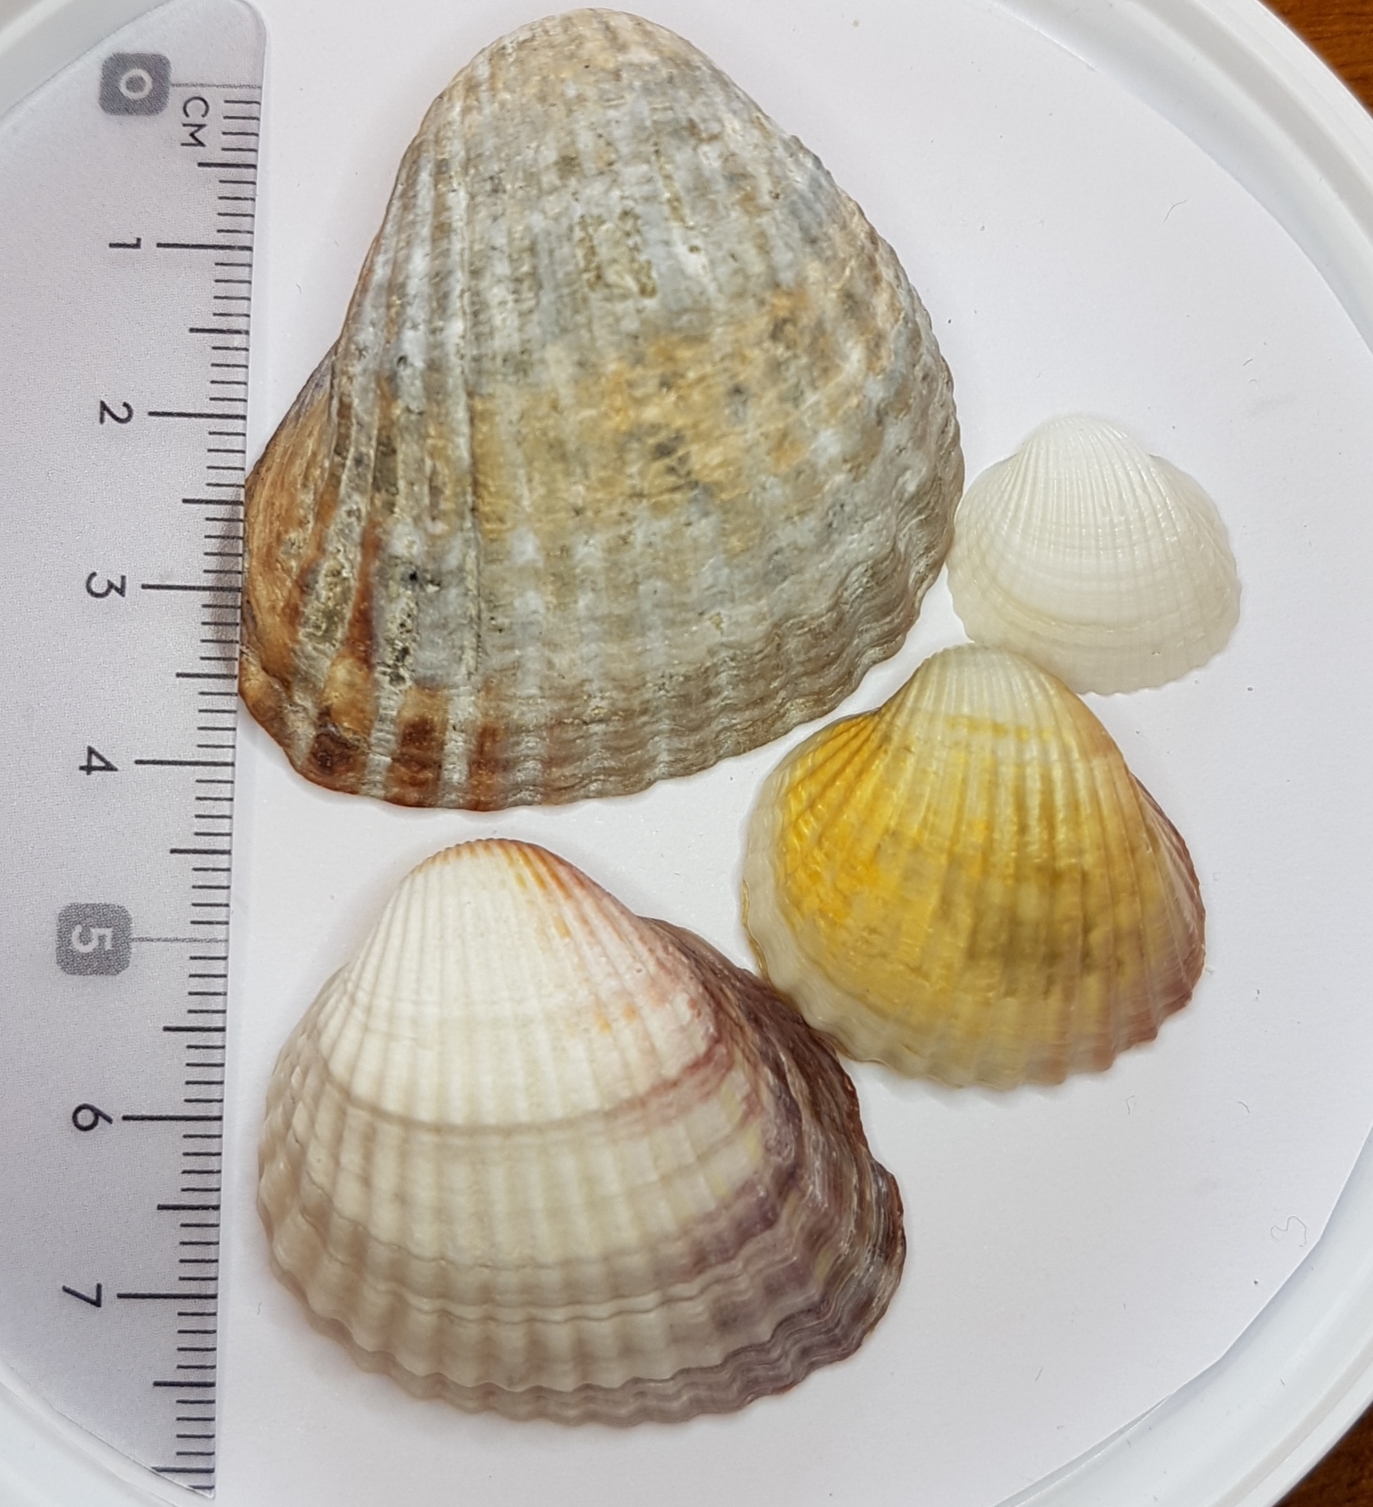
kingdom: Animalia
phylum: Mollusca
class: Bivalvia
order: Cardiida
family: Cardiidae
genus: Cerastoderma
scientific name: Cerastoderma glaucum
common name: Lagoon cockle
